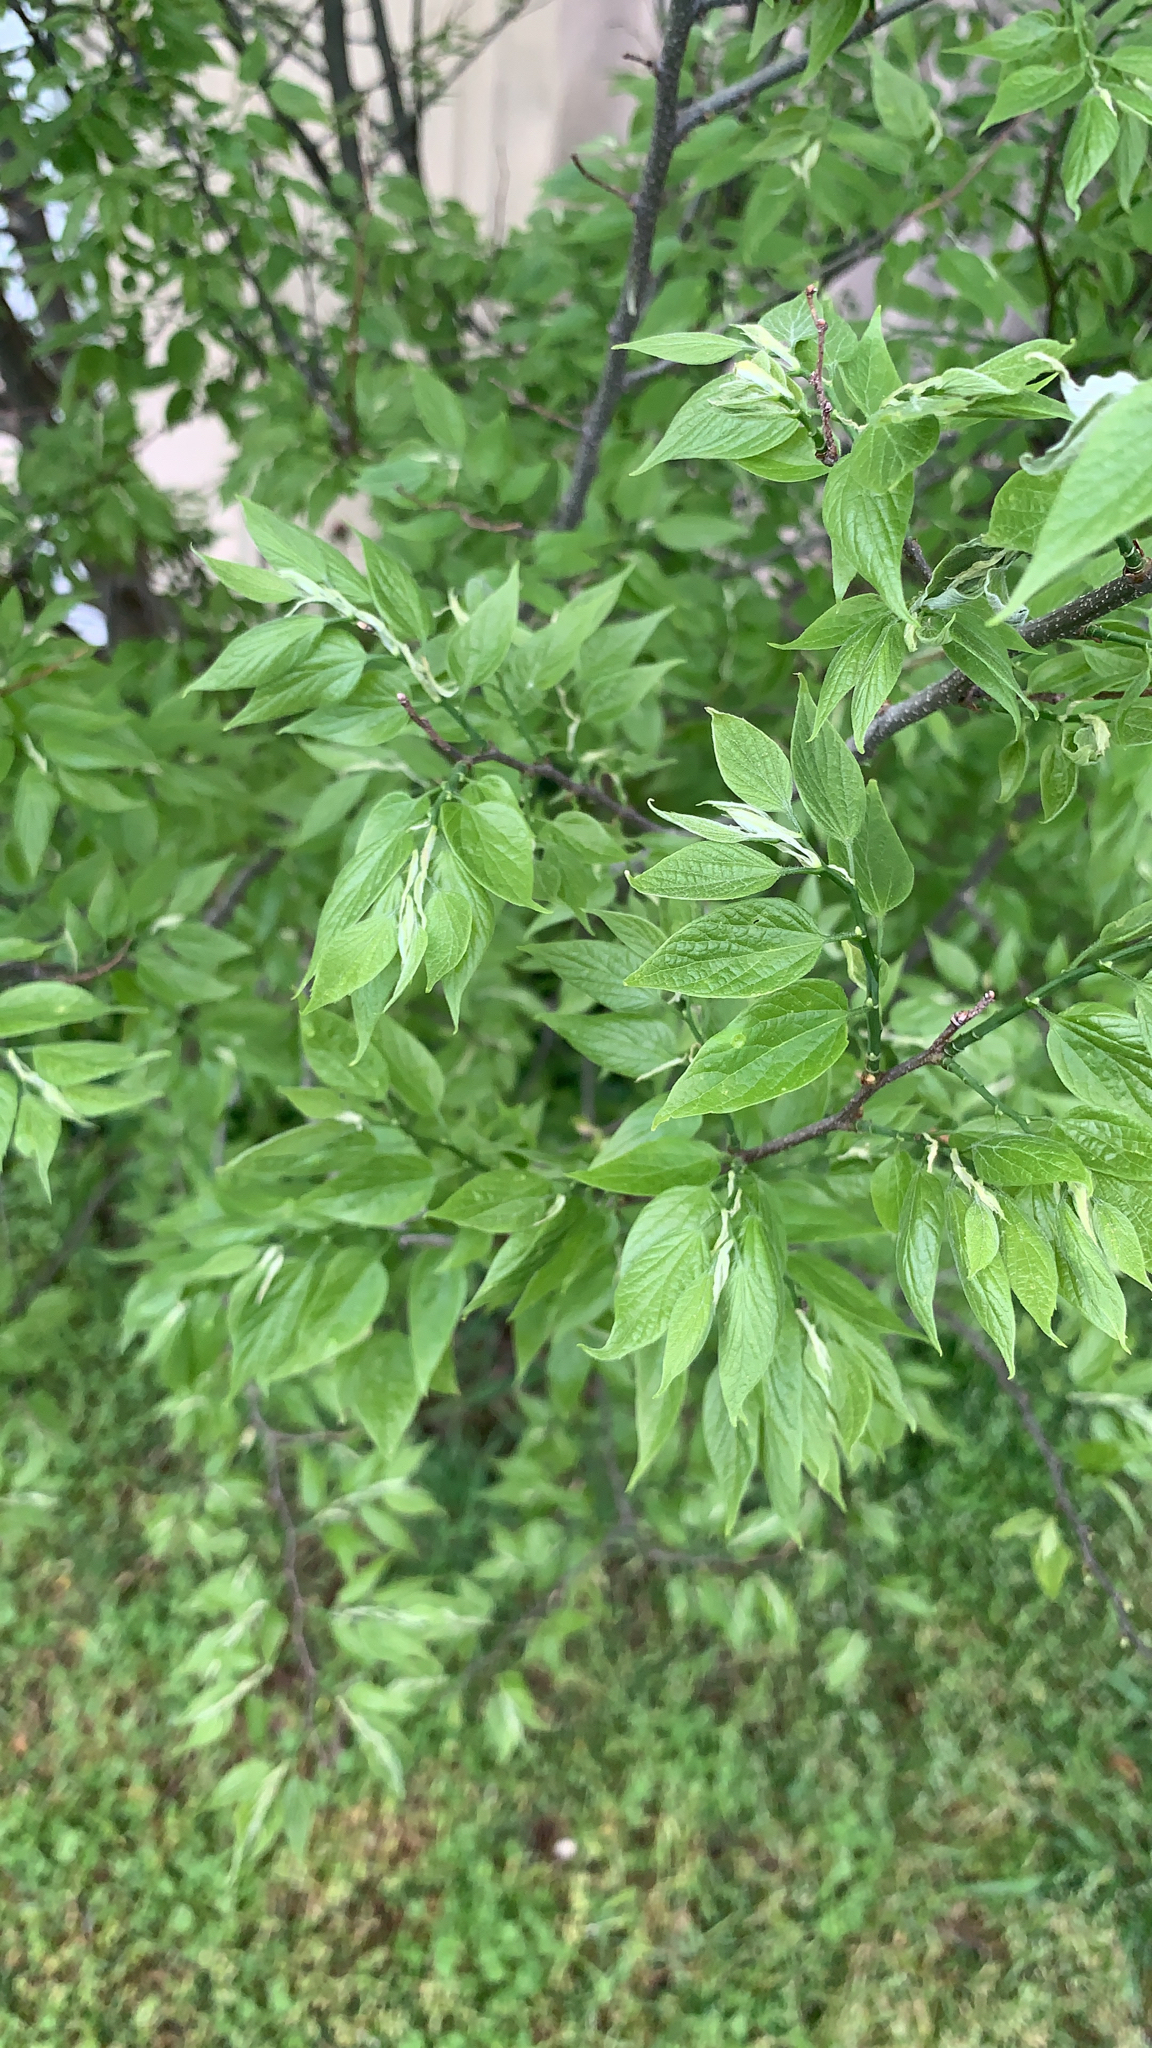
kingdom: Plantae
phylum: Tracheophyta
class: Magnoliopsida
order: Rosales
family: Cannabaceae
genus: Celtis
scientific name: Celtis laevigata
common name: Sugarberry
